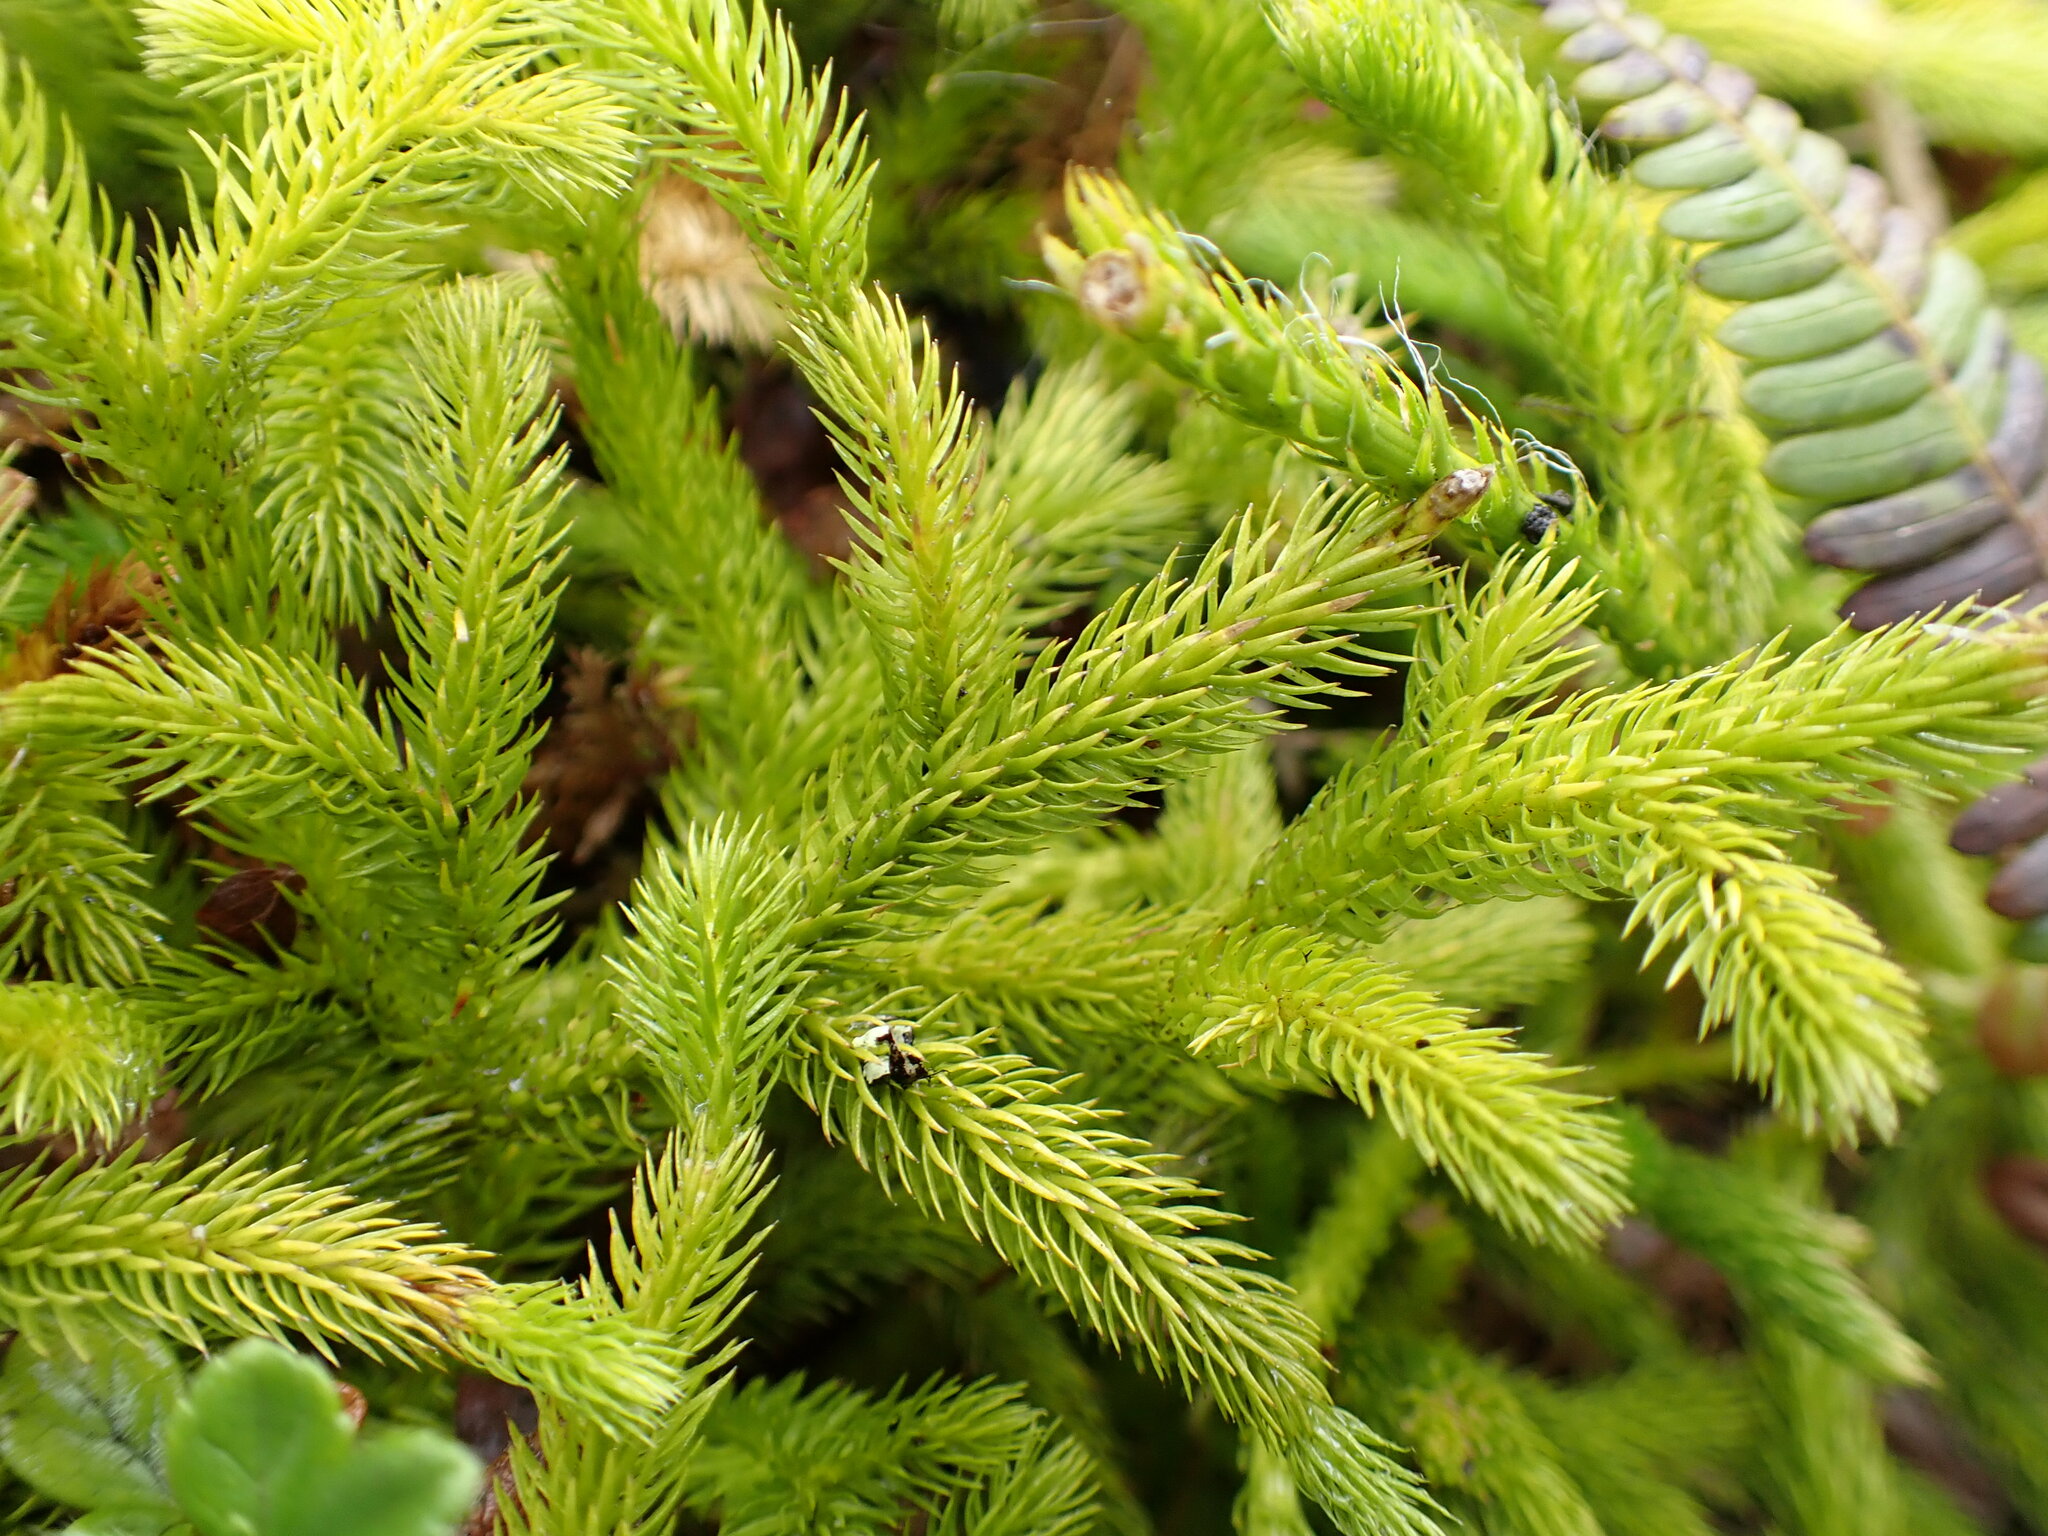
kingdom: Plantae
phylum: Tracheophyta
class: Lycopodiopsida
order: Lycopodiales
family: Lycopodiaceae
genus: Lycopodium
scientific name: Lycopodium clavatum
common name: Stag's-horn clubmoss
